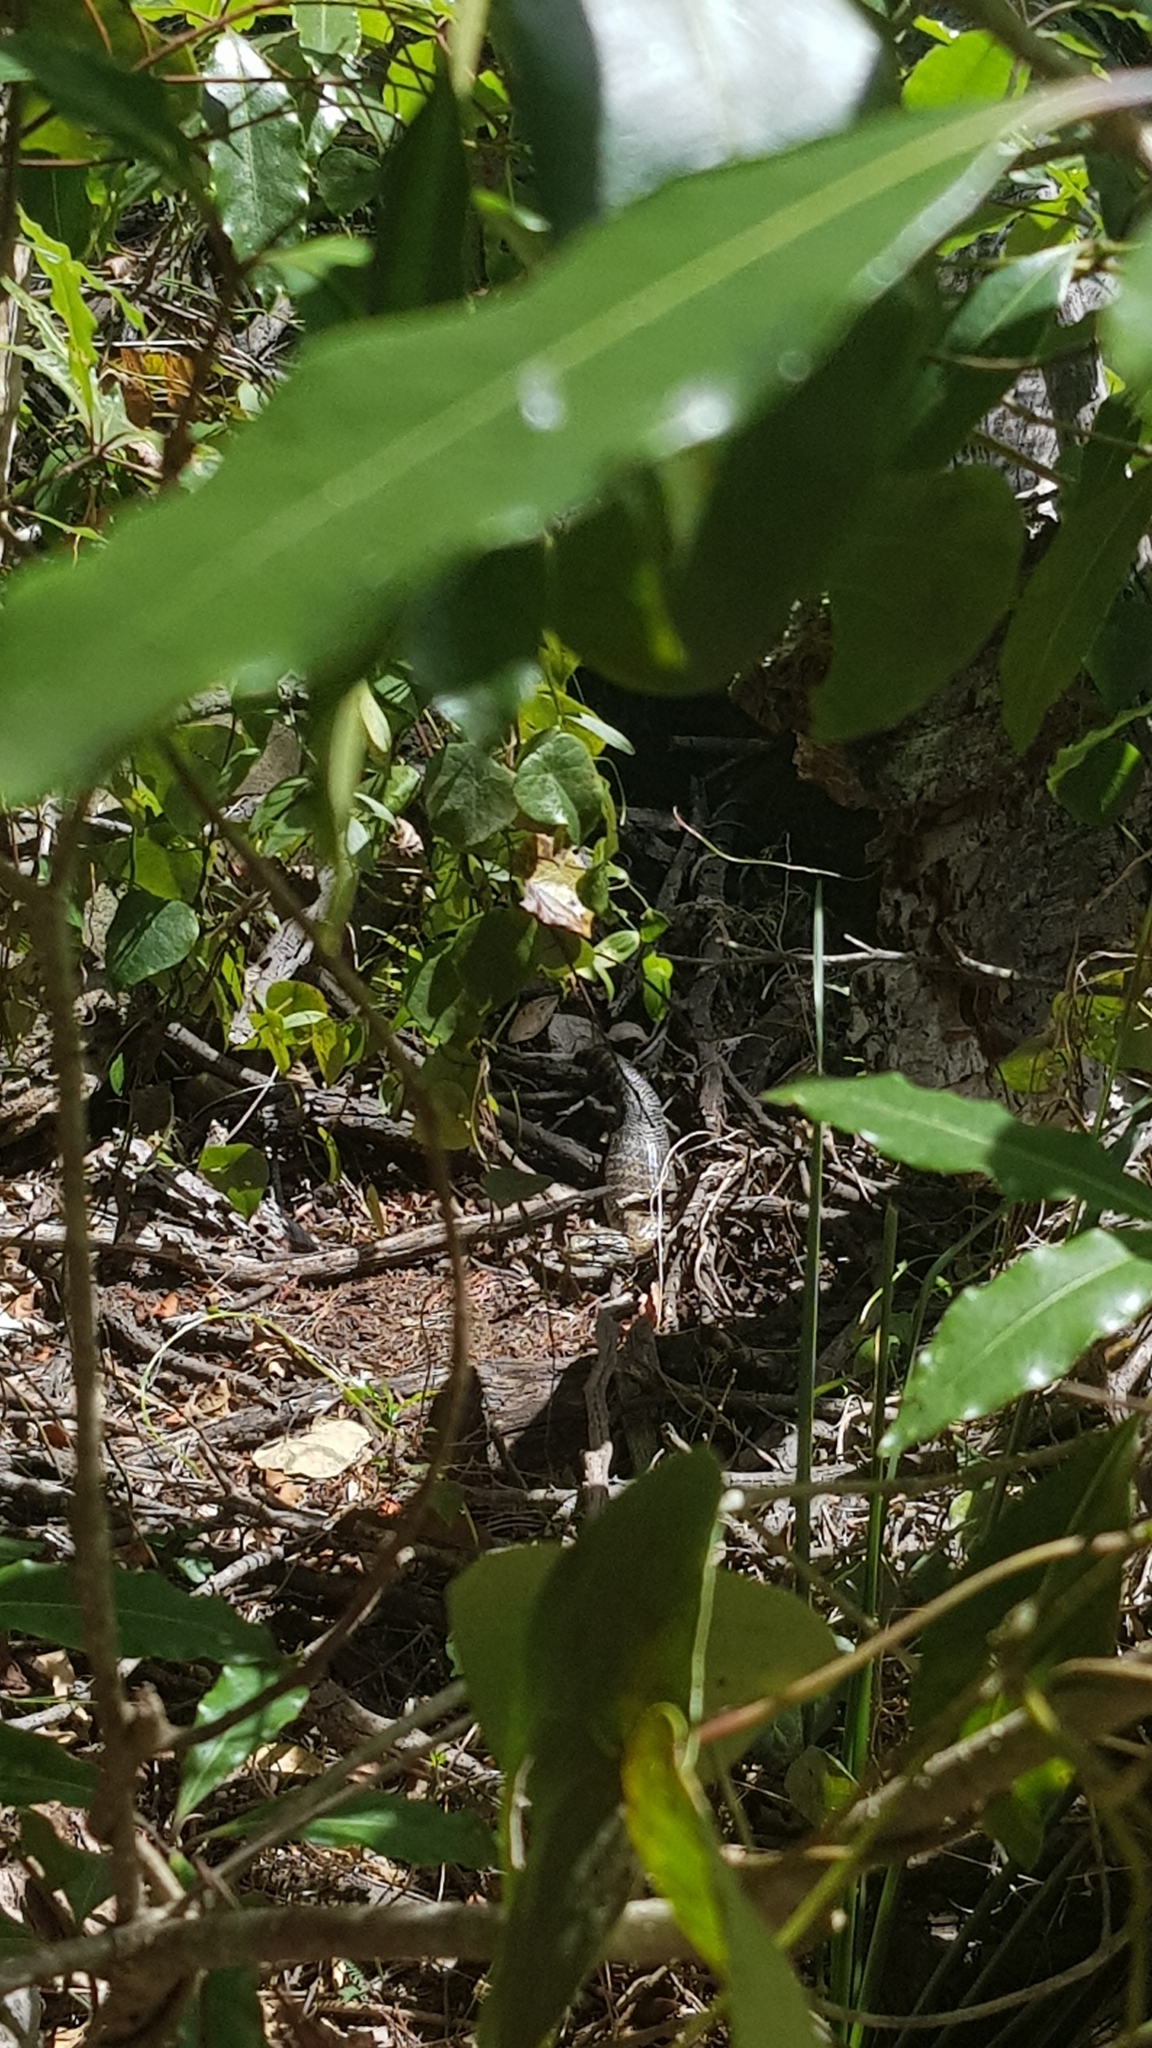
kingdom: Animalia
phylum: Chordata
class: Squamata
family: Scincidae
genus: Tiliqua
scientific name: Tiliqua scincoides
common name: Common bluetongue
